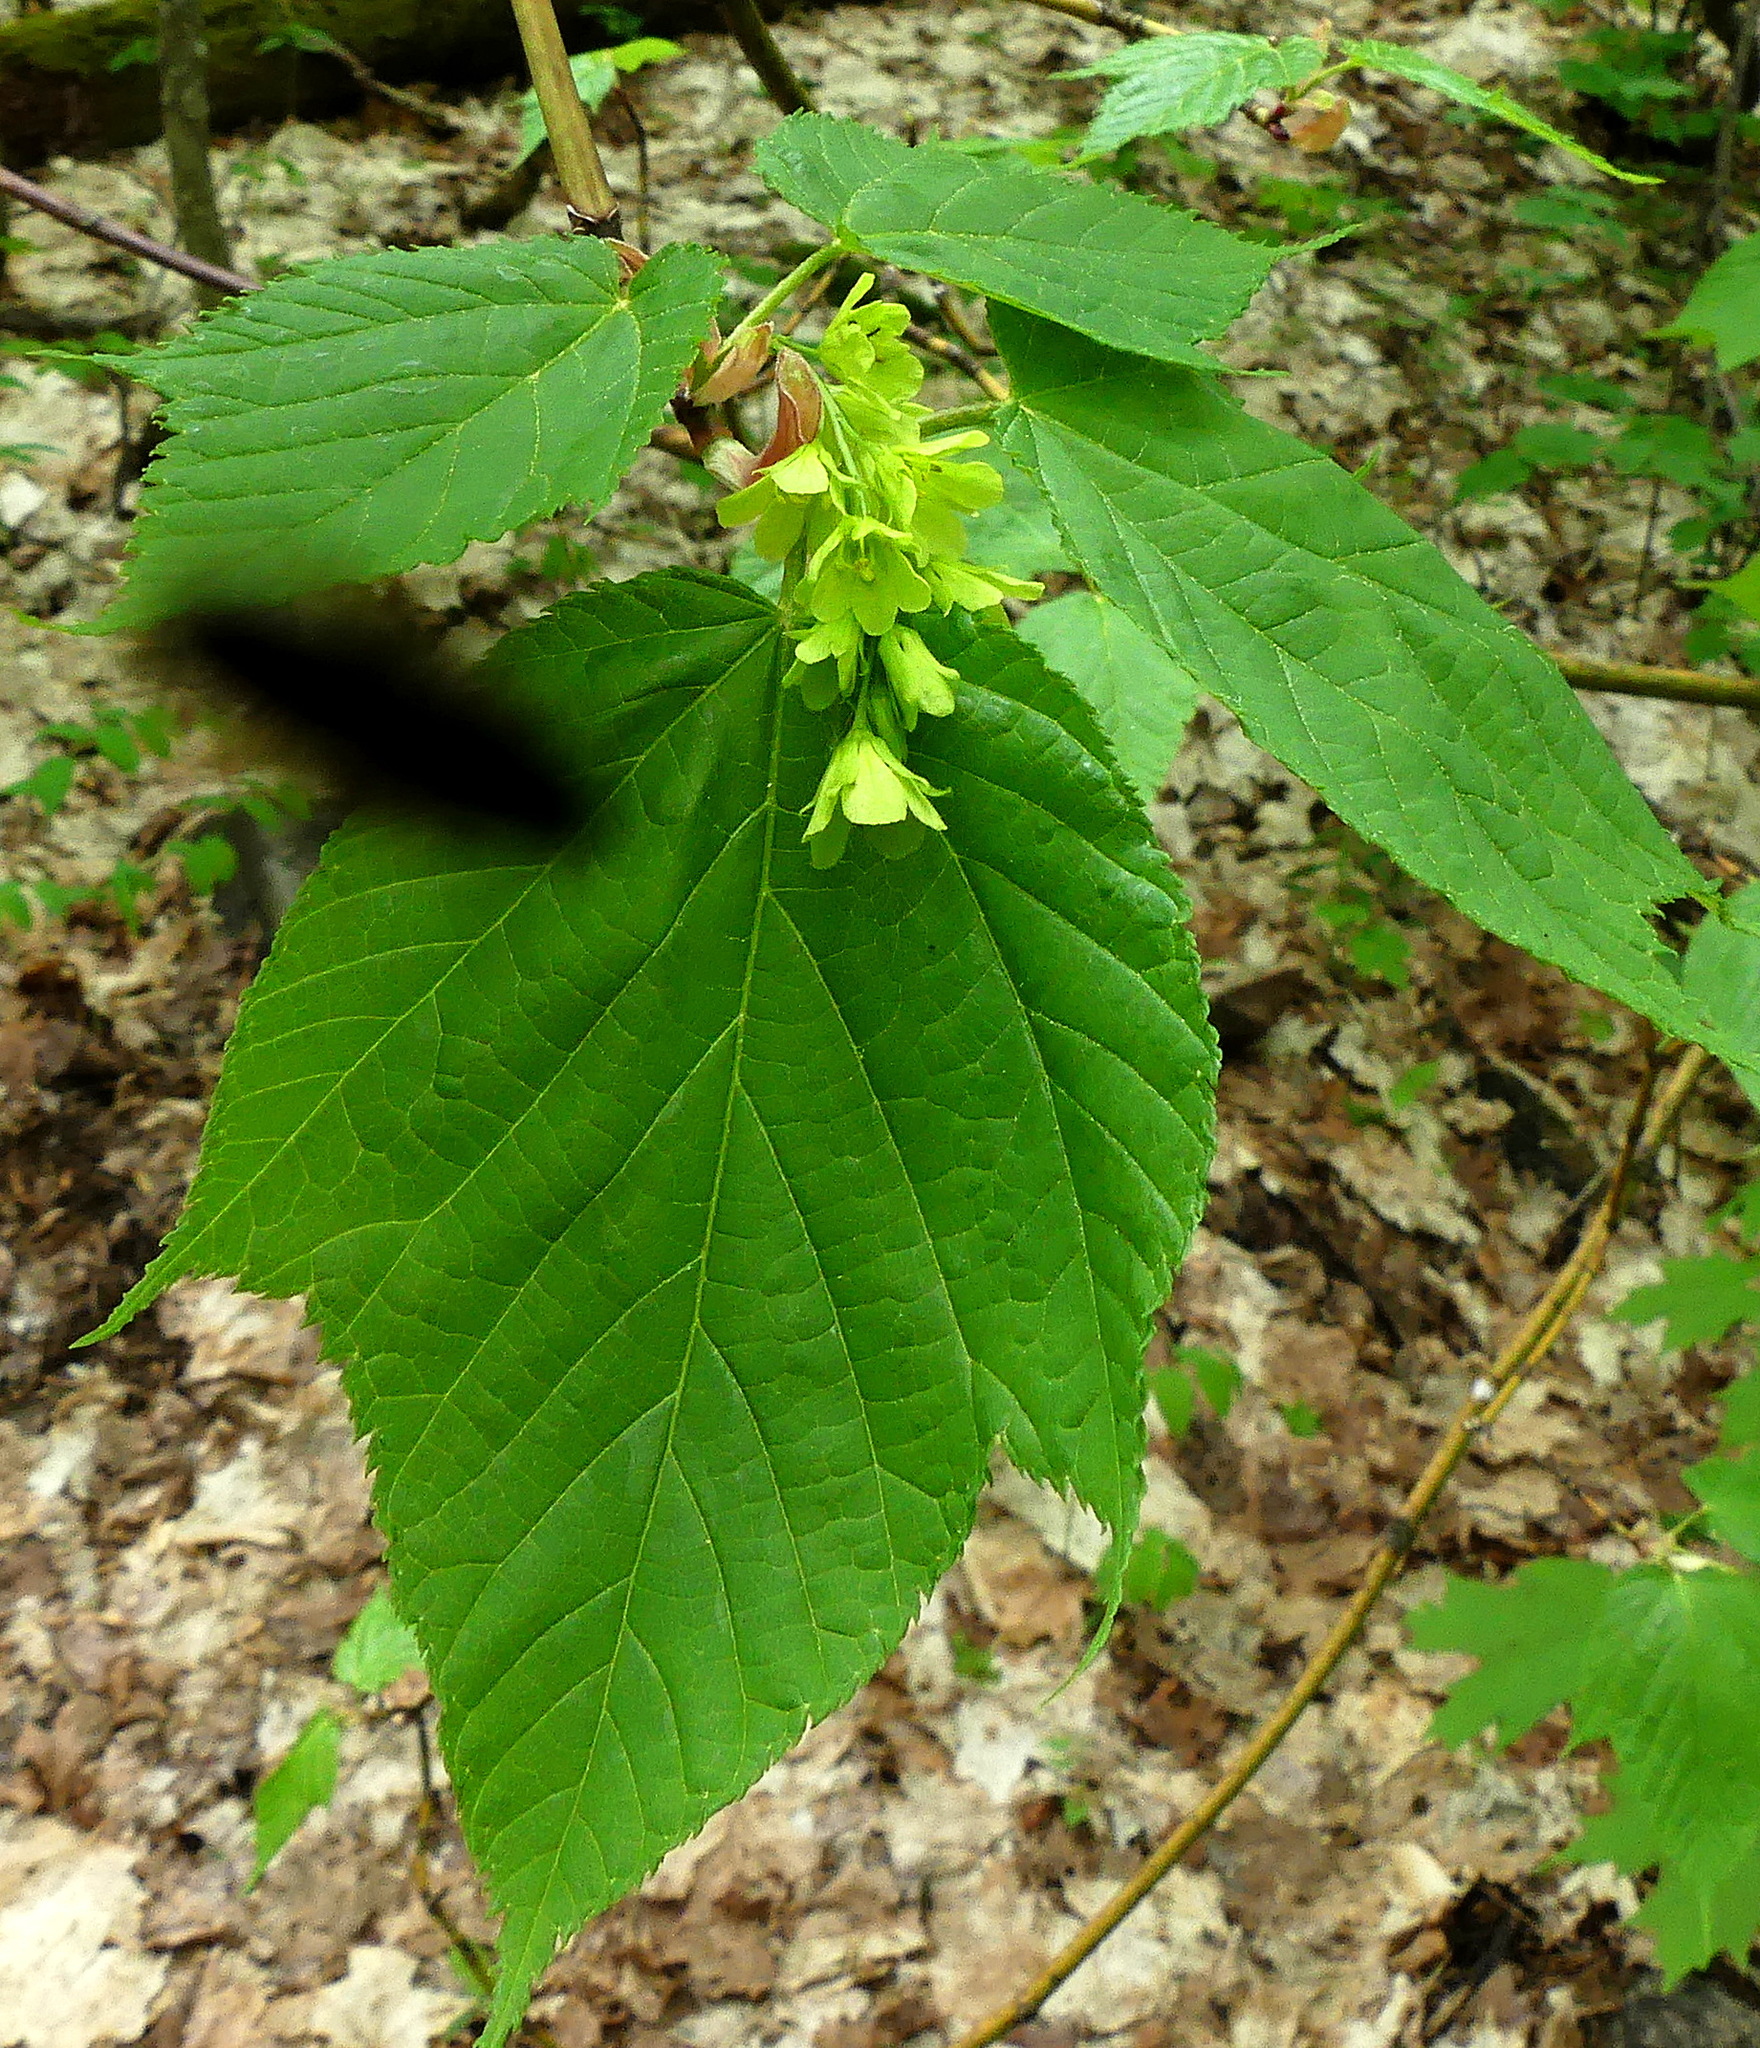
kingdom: Plantae
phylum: Tracheophyta
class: Magnoliopsida
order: Sapindales
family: Sapindaceae
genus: Acer
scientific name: Acer pensylvanicum
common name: Moosewood
